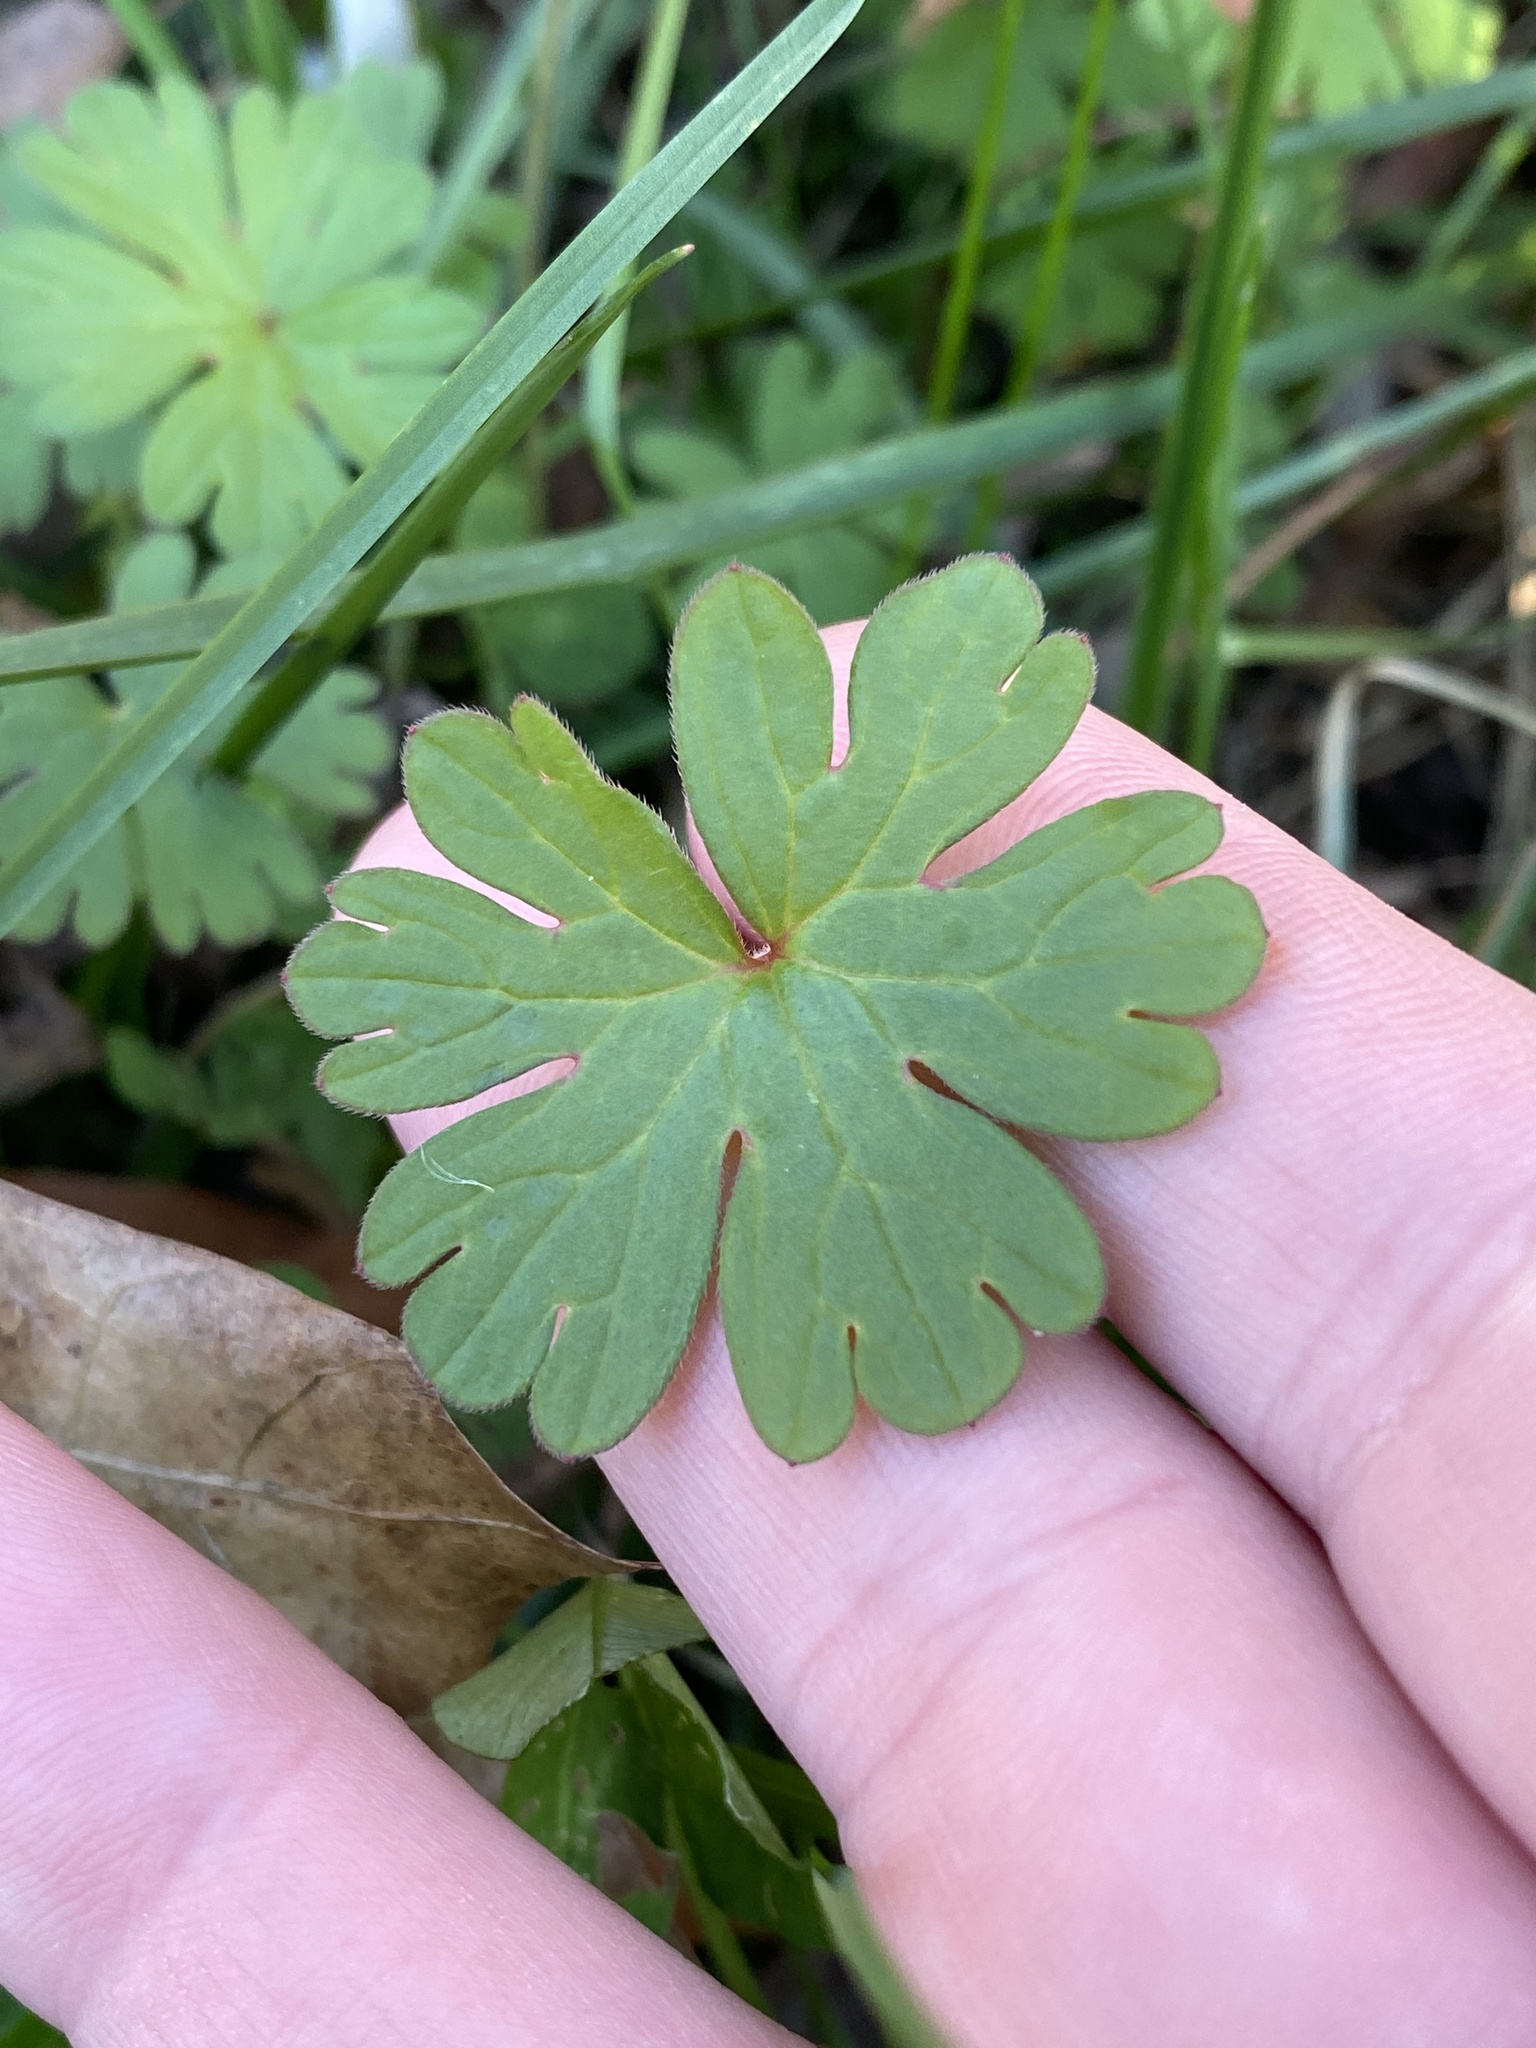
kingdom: Plantae
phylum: Tracheophyta
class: Magnoliopsida
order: Geraniales
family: Geraniaceae
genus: Geranium
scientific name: Geranium carolinianum
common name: Carolina crane's-bill
